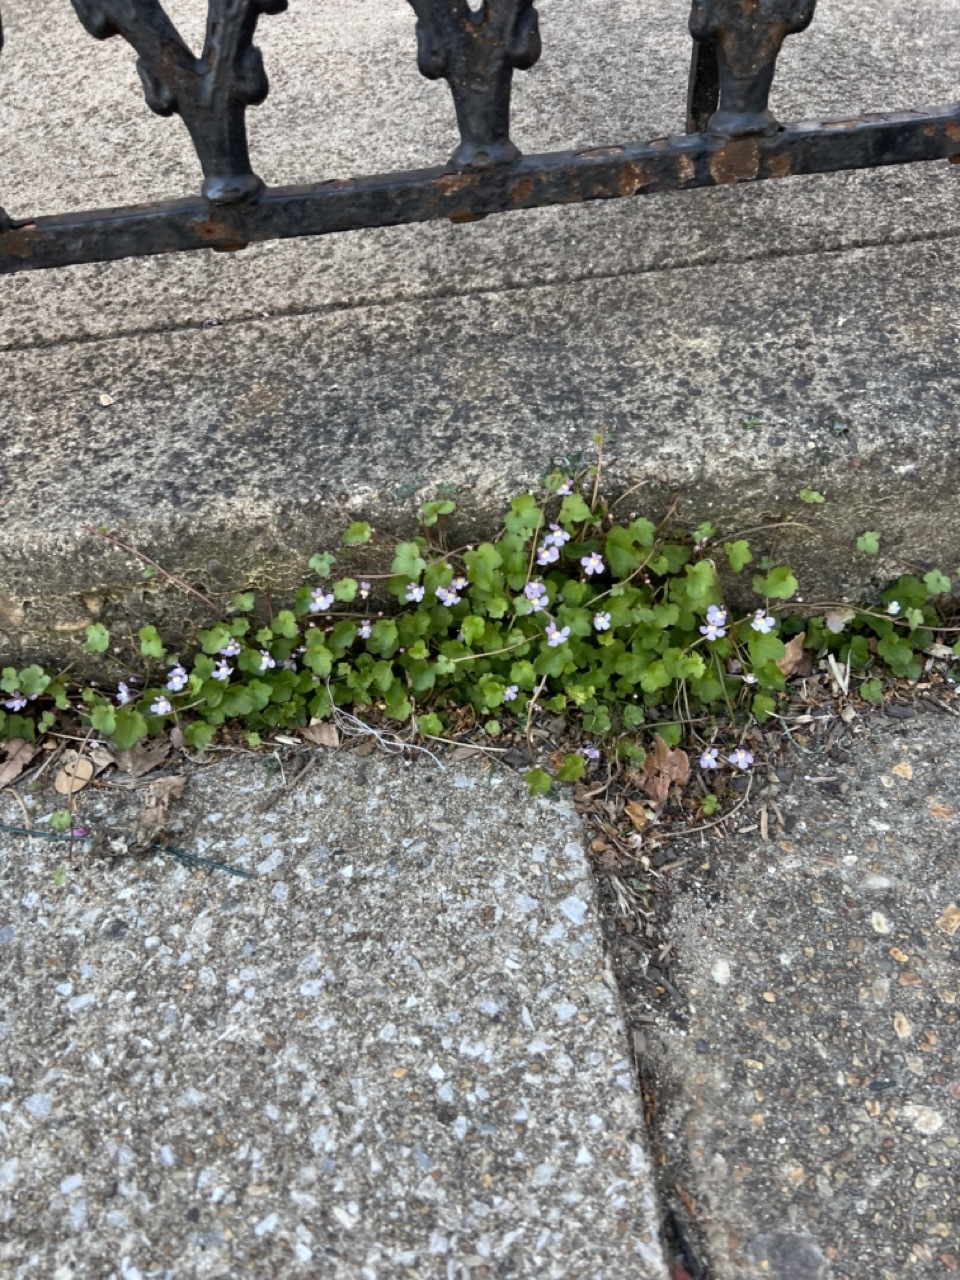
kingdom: Plantae
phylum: Tracheophyta
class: Magnoliopsida
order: Lamiales
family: Plantaginaceae
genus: Cymbalaria
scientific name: Cymbalaria muralis
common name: Ivy-leaved toadflax
